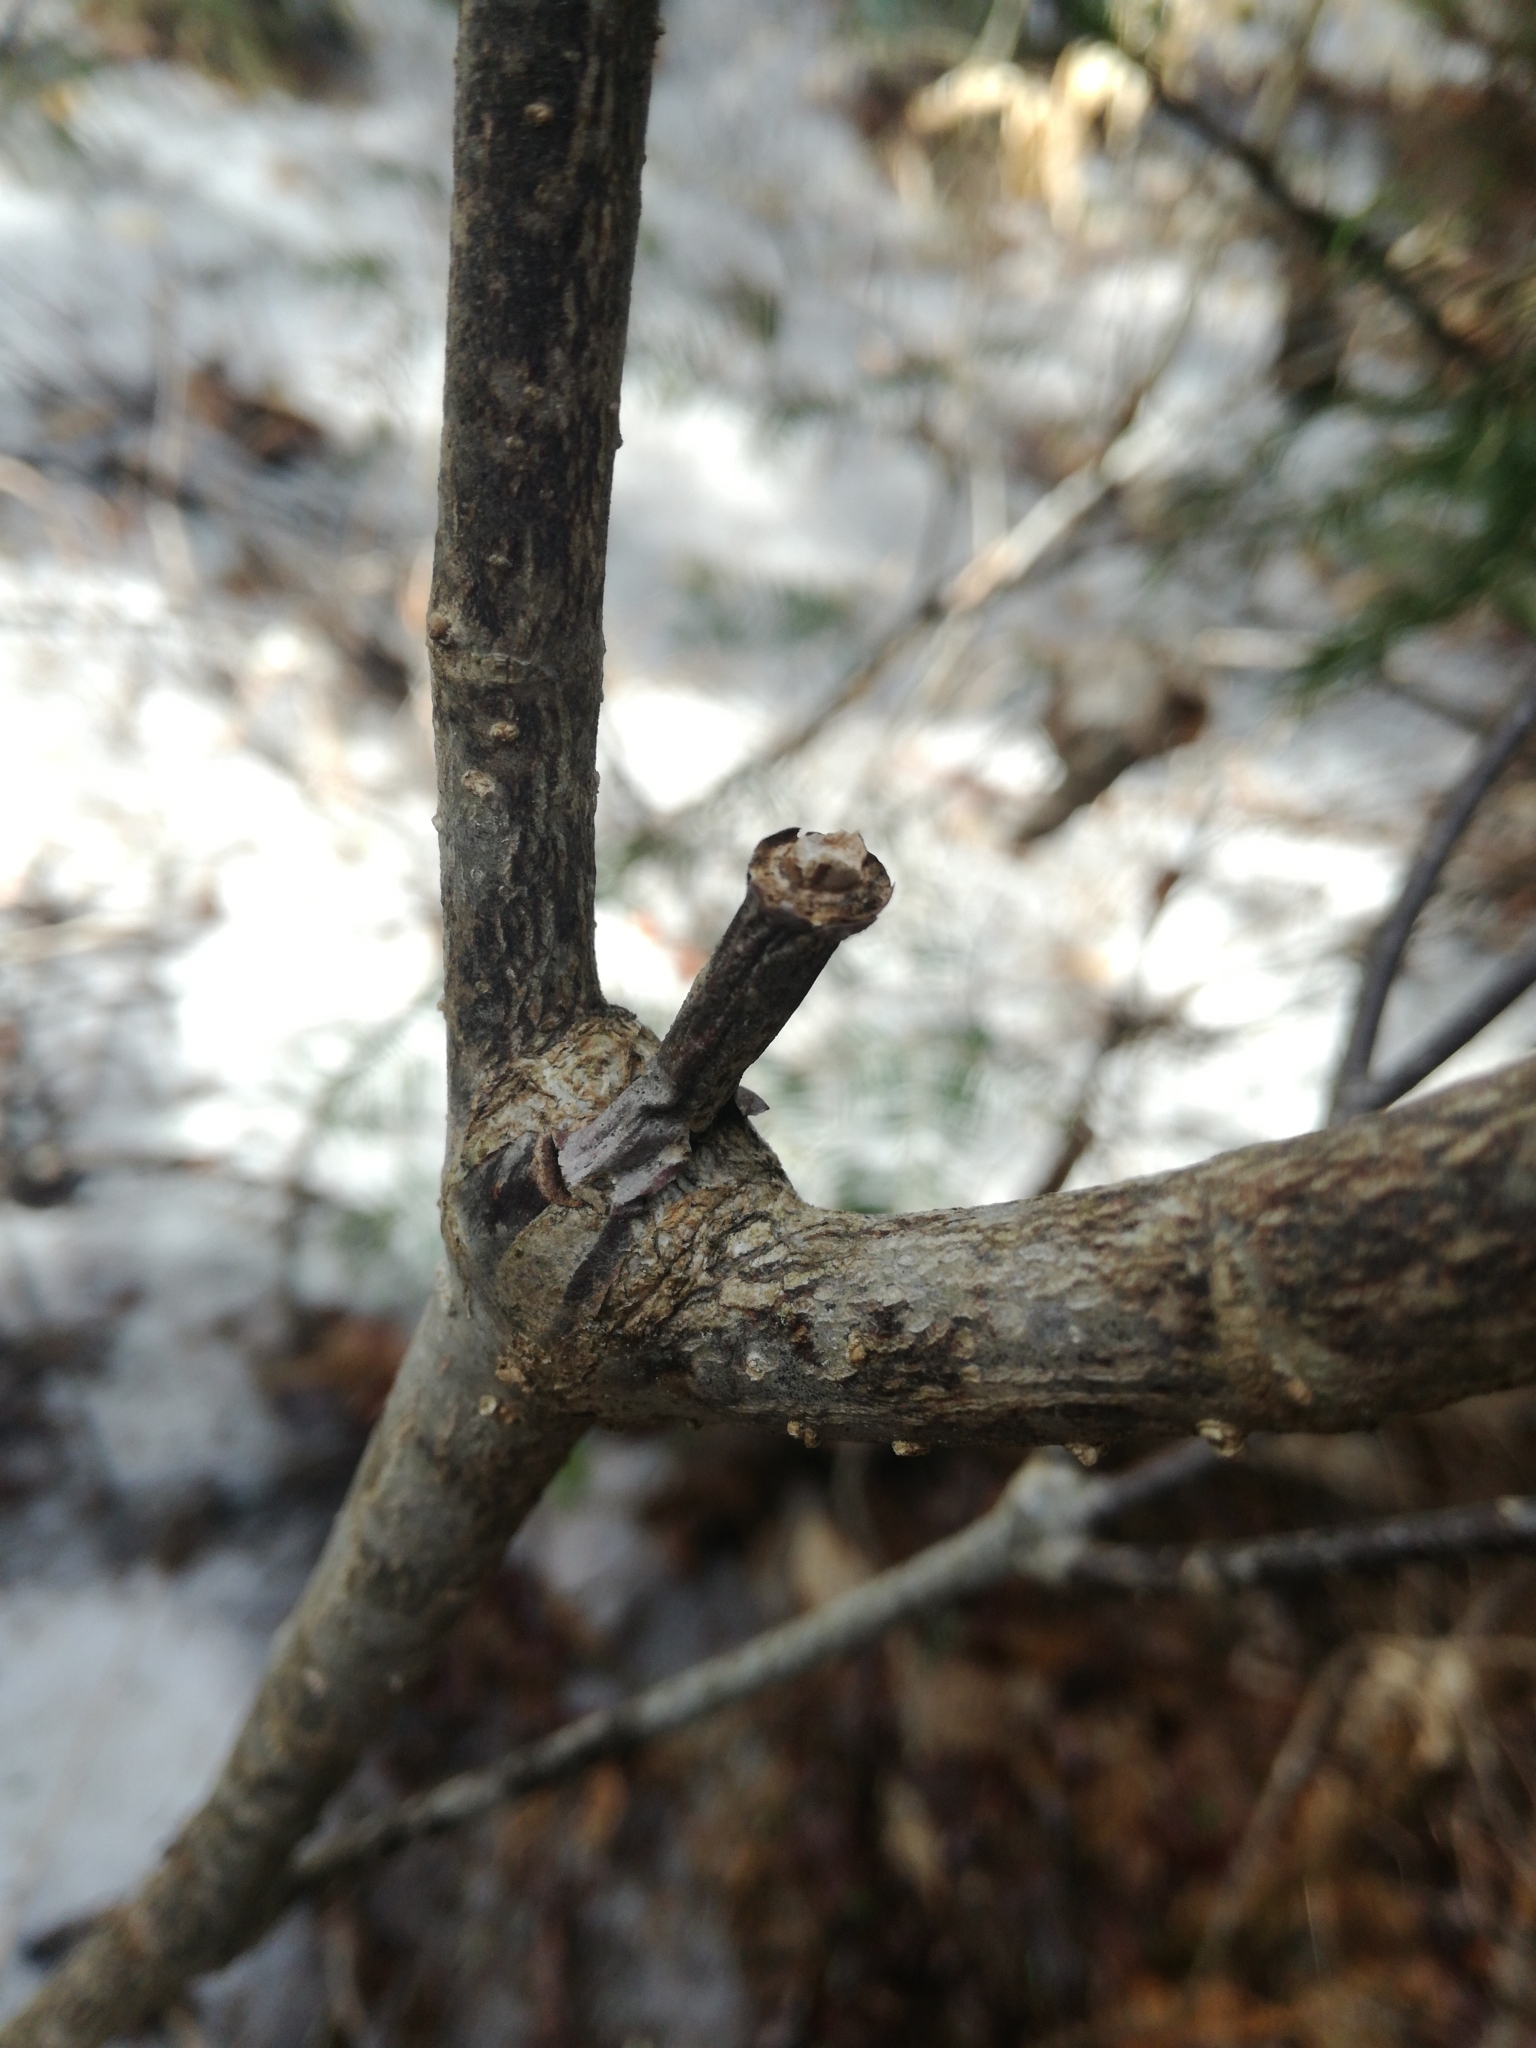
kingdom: Plantae
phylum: Tracheophyta
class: Magnoliopsida
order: Dipsacales
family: Viburnaceae
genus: Viburnum
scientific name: Viburnum lantanoides
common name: Hobblebush
